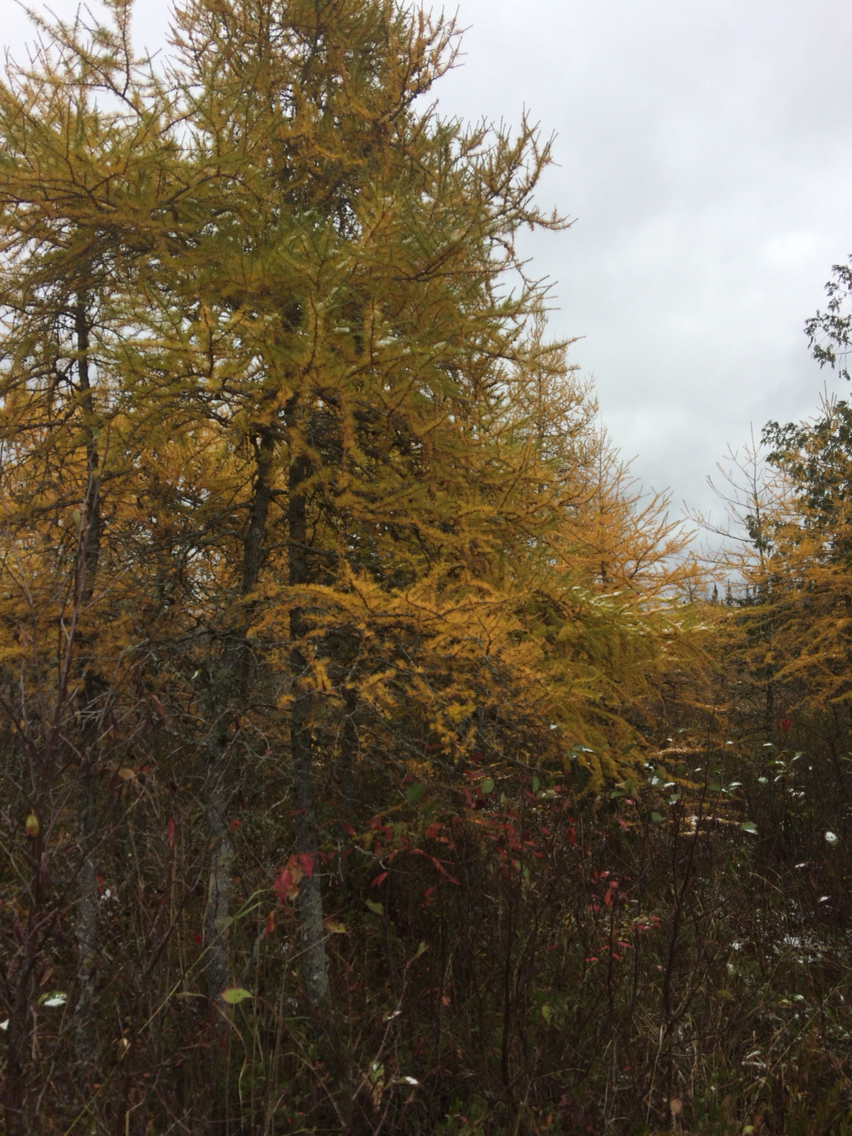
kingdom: Plantae
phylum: Tracheophyta
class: Pinopsida
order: Pinales
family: Pinaceae
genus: Larix
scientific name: Larix laricina
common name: American larch
